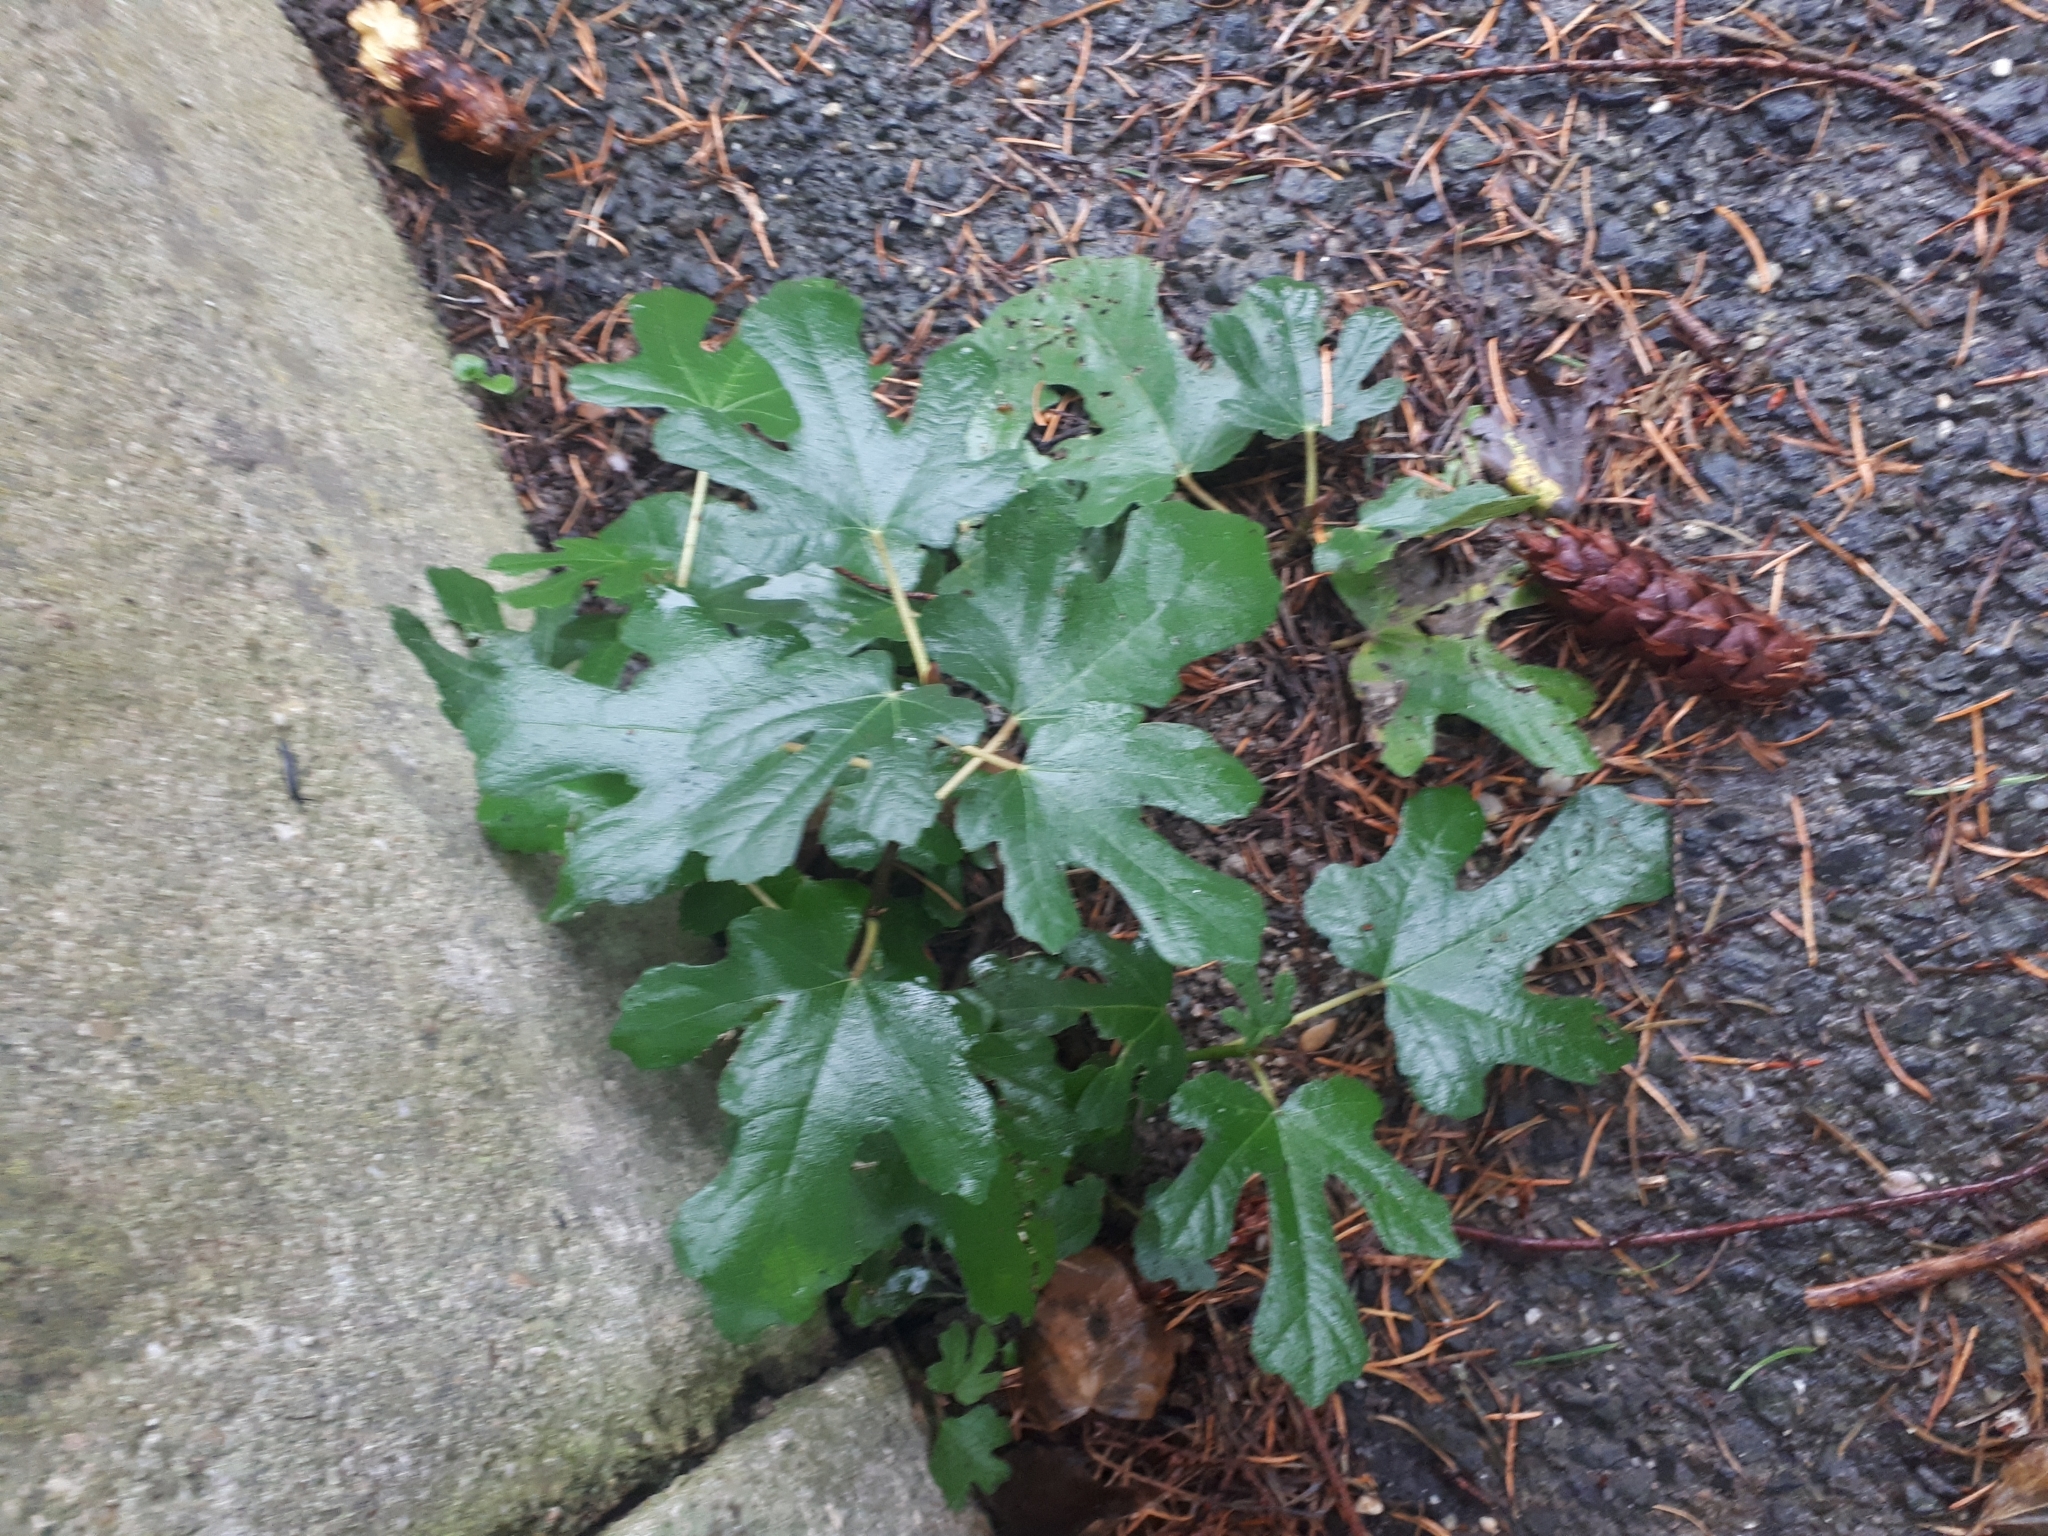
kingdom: Plantae
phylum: Tracheophyta
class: Magnoliopsida
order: Rosales
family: Moraceae
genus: Ficus
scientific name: Ficus carica
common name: Fig
